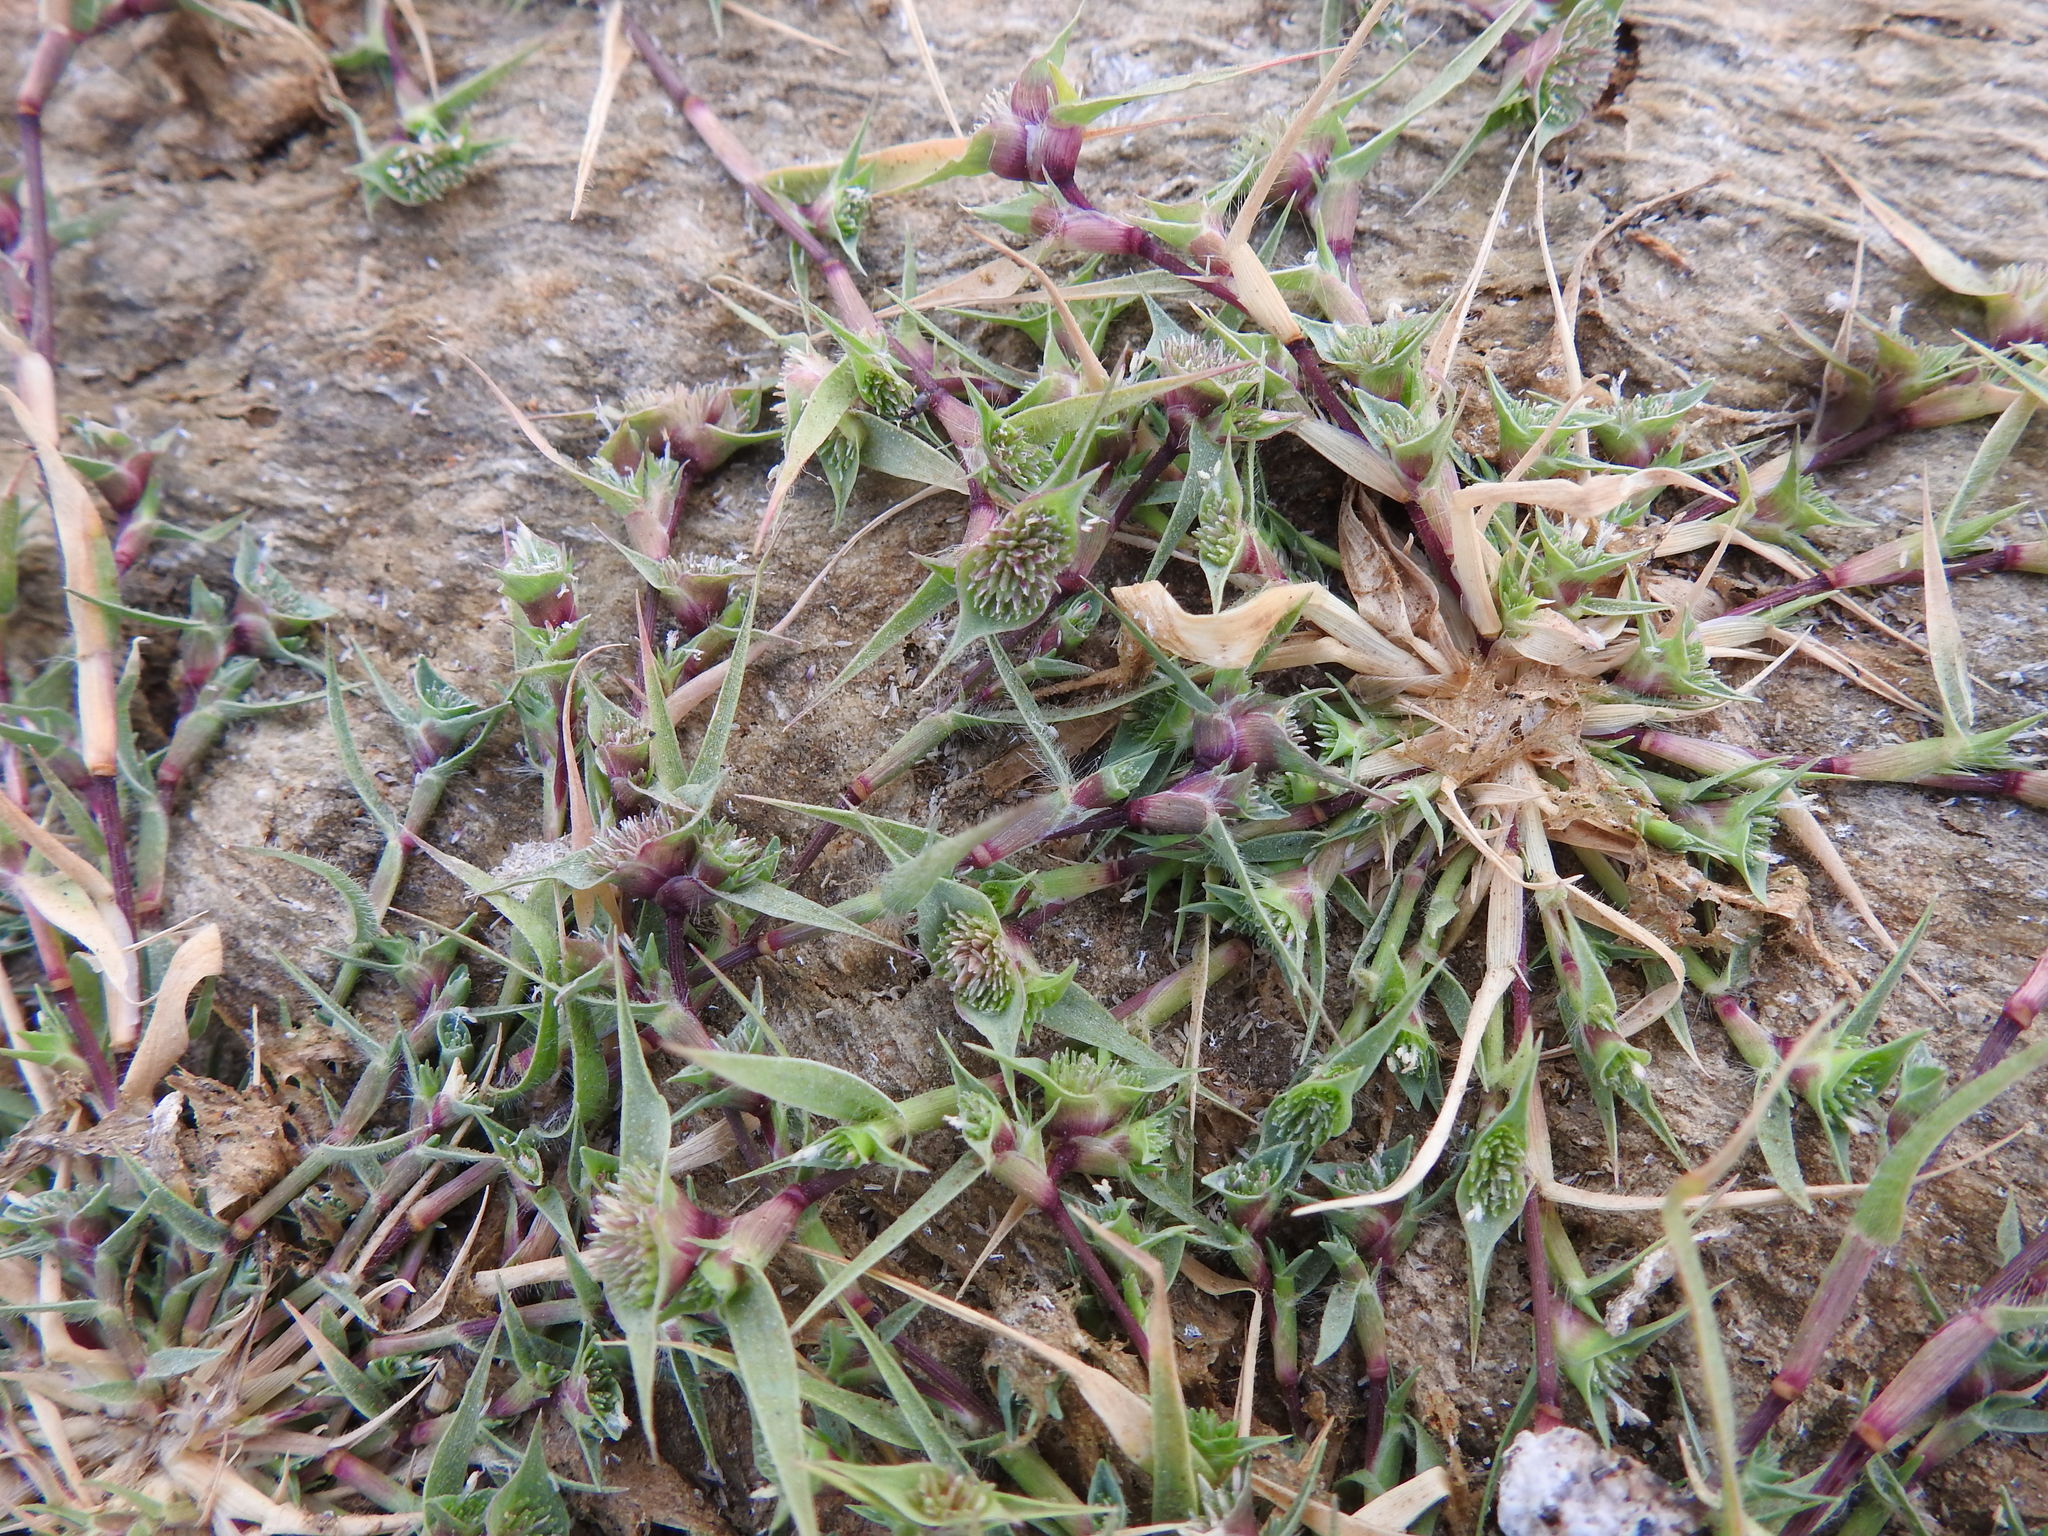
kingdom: Plantae
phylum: Tracheophyta
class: Liliopsida
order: Poales
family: Poaceae
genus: Sporobolus
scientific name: Sporobolus aculeatus
